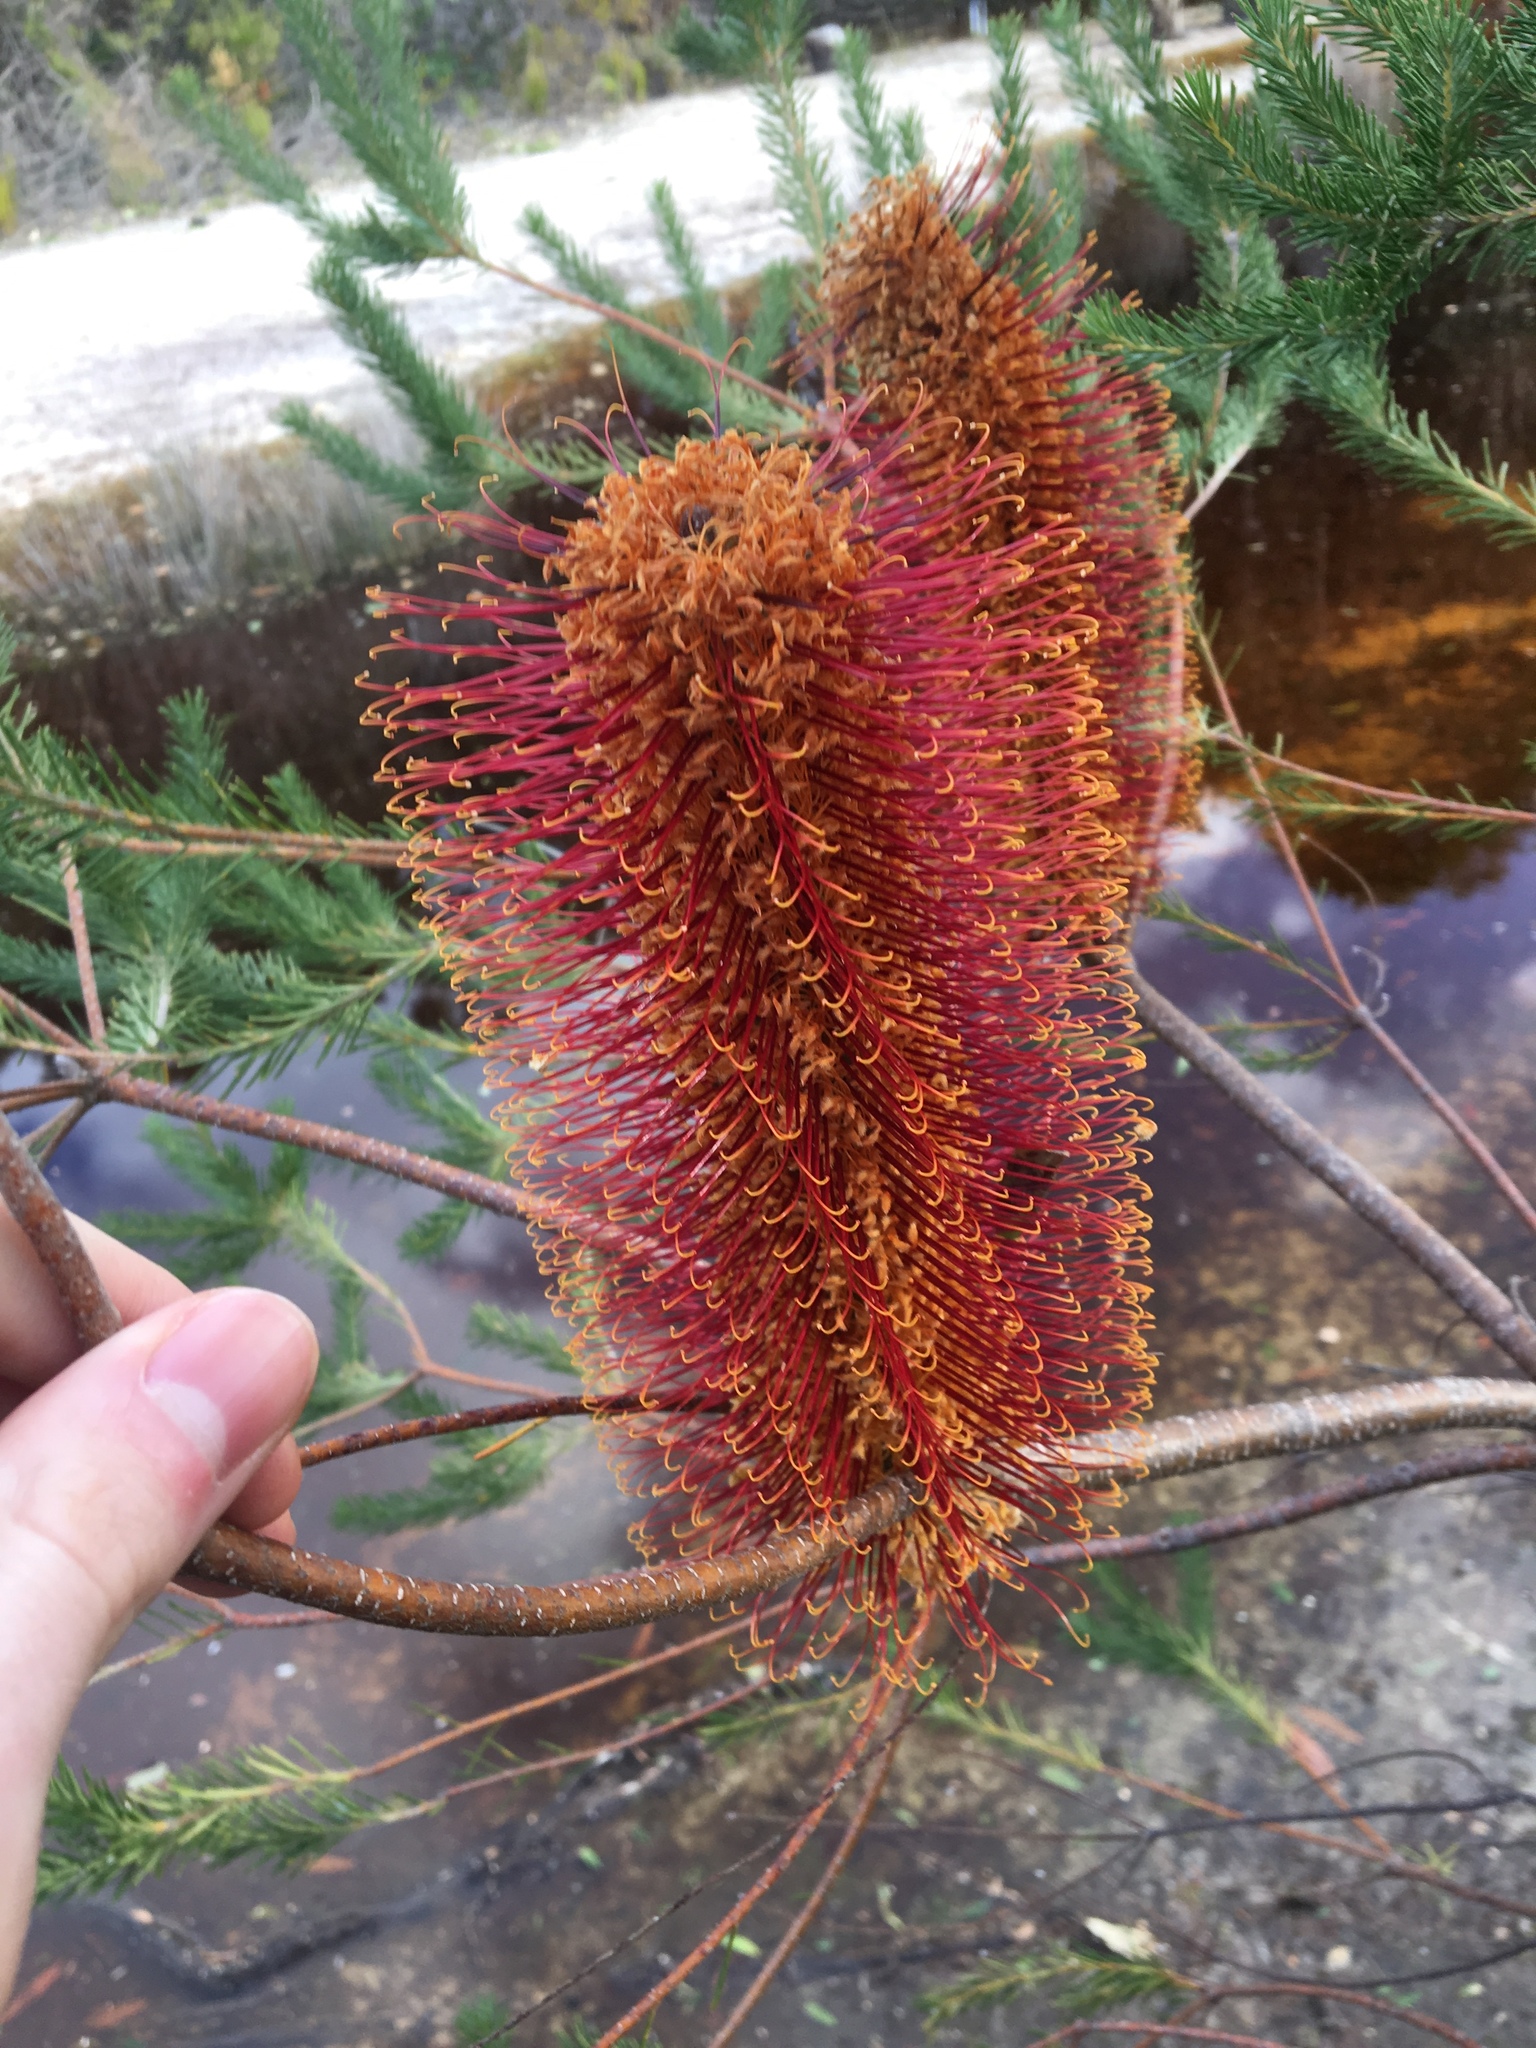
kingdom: Plantae
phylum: Tracheophyta
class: Magnoliopsida
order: Proteales
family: Proteaceae
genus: Banksia
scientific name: Banksia ericifolia
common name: Heath-leaf banksia
